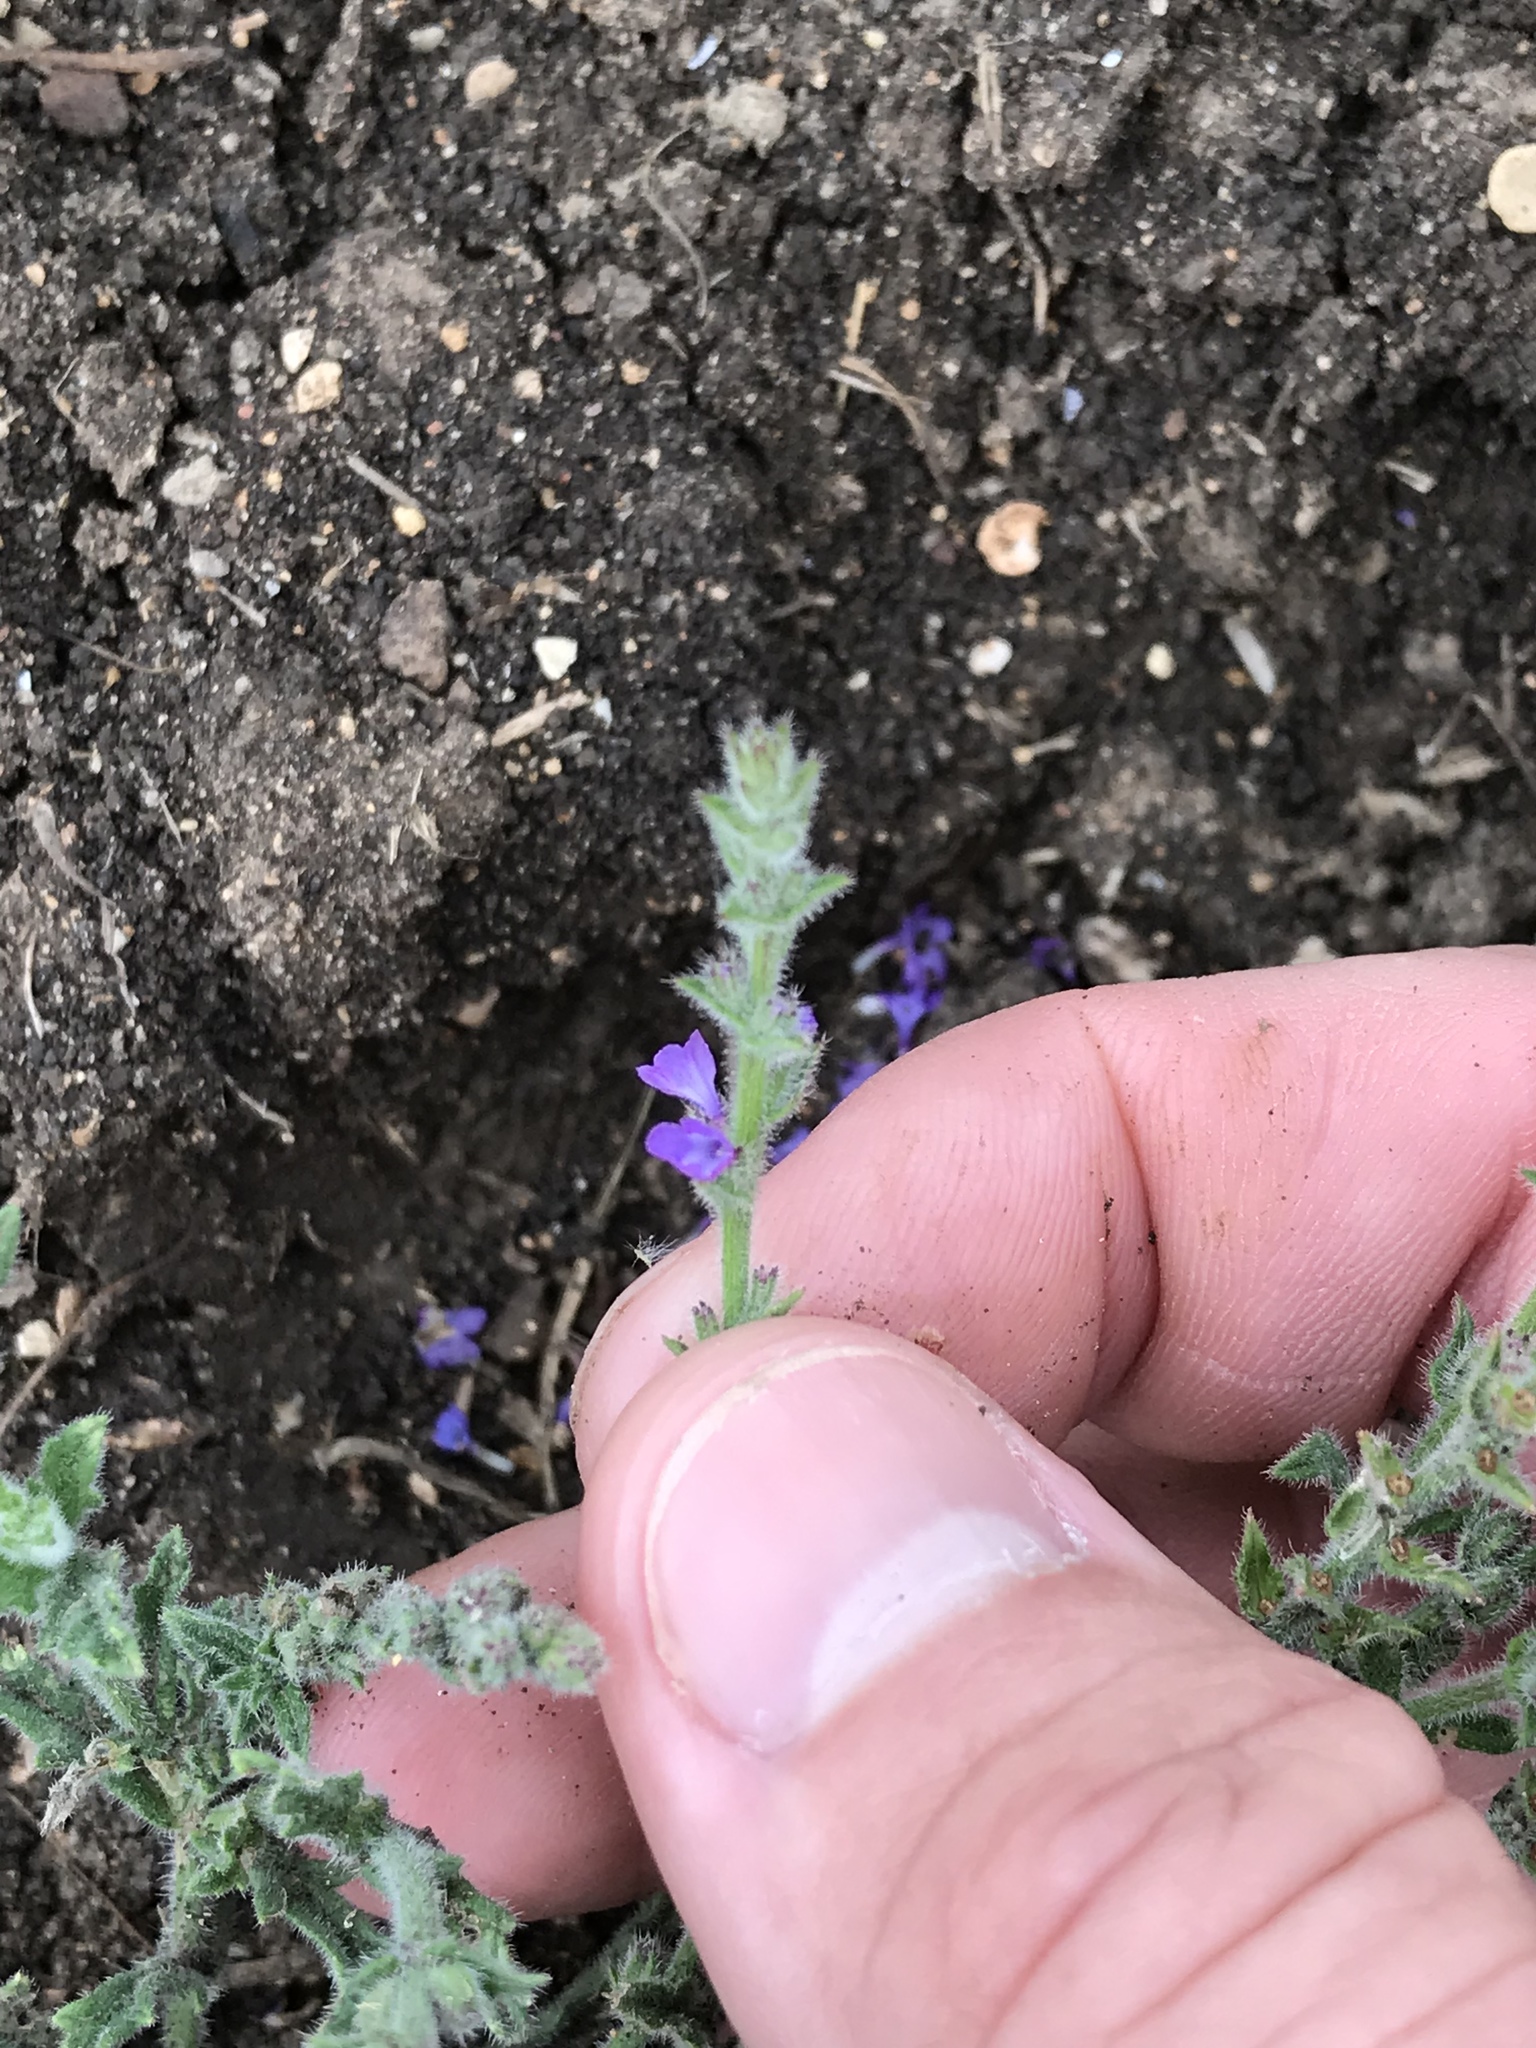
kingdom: Plantae
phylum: Tracheophyta
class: Magnoliopsida
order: Lamiales
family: Verbenaceae
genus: Verbena
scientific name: Verbena canescens
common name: Gray vervain
